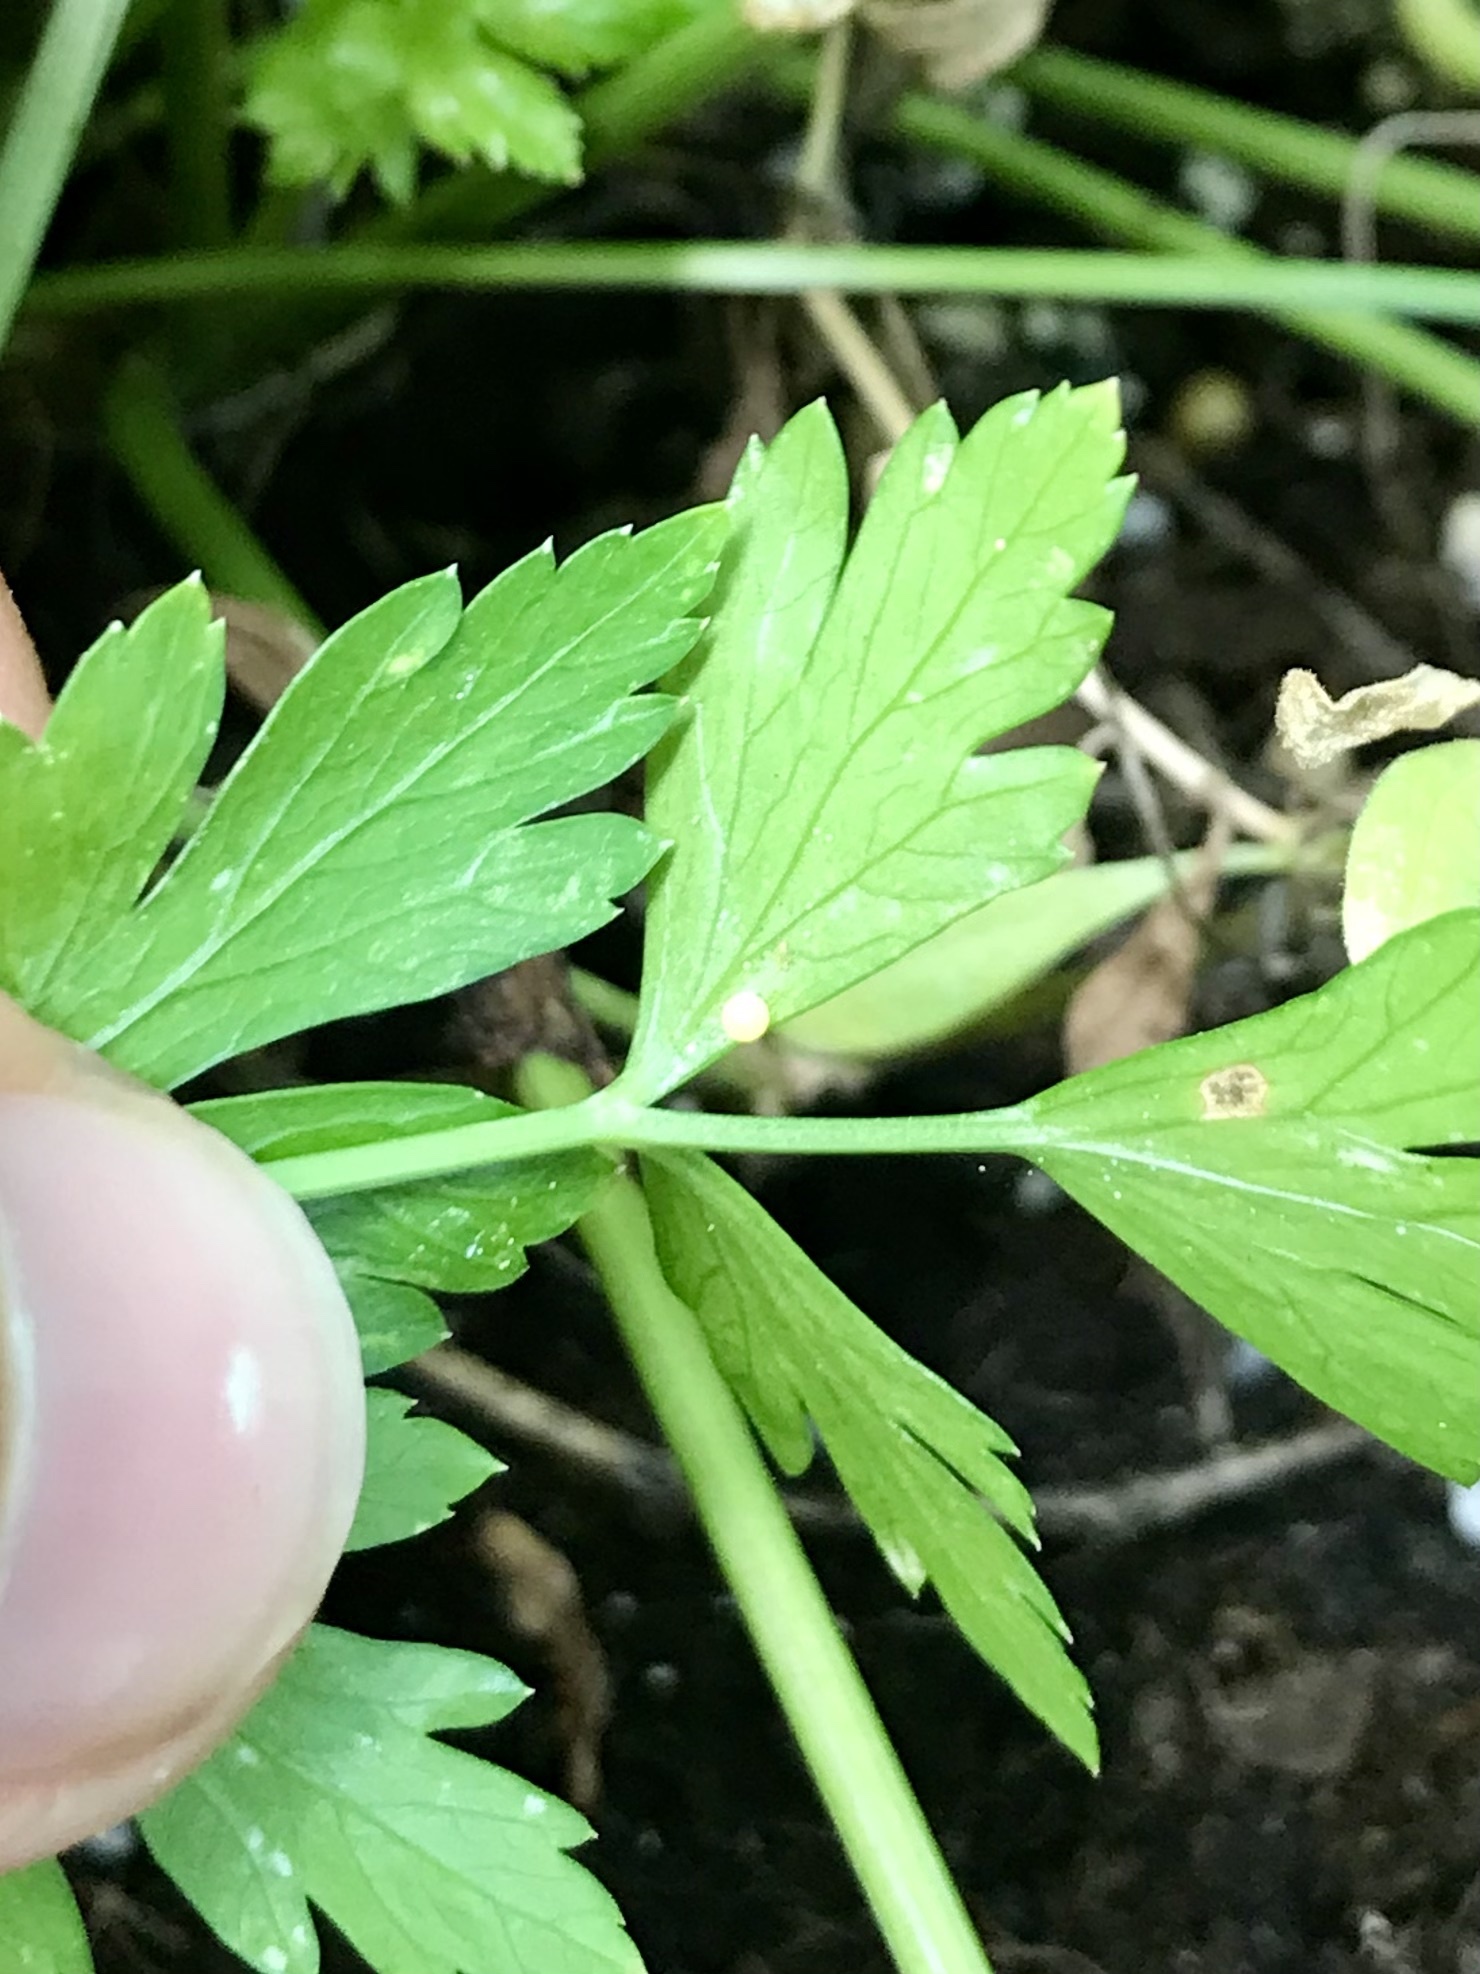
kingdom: Animalia
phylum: Arthropoda
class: Insecta
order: Lepidoptera
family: Papilionidae
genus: Papilio
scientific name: Papilio polyxenes
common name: Black swallowtail
